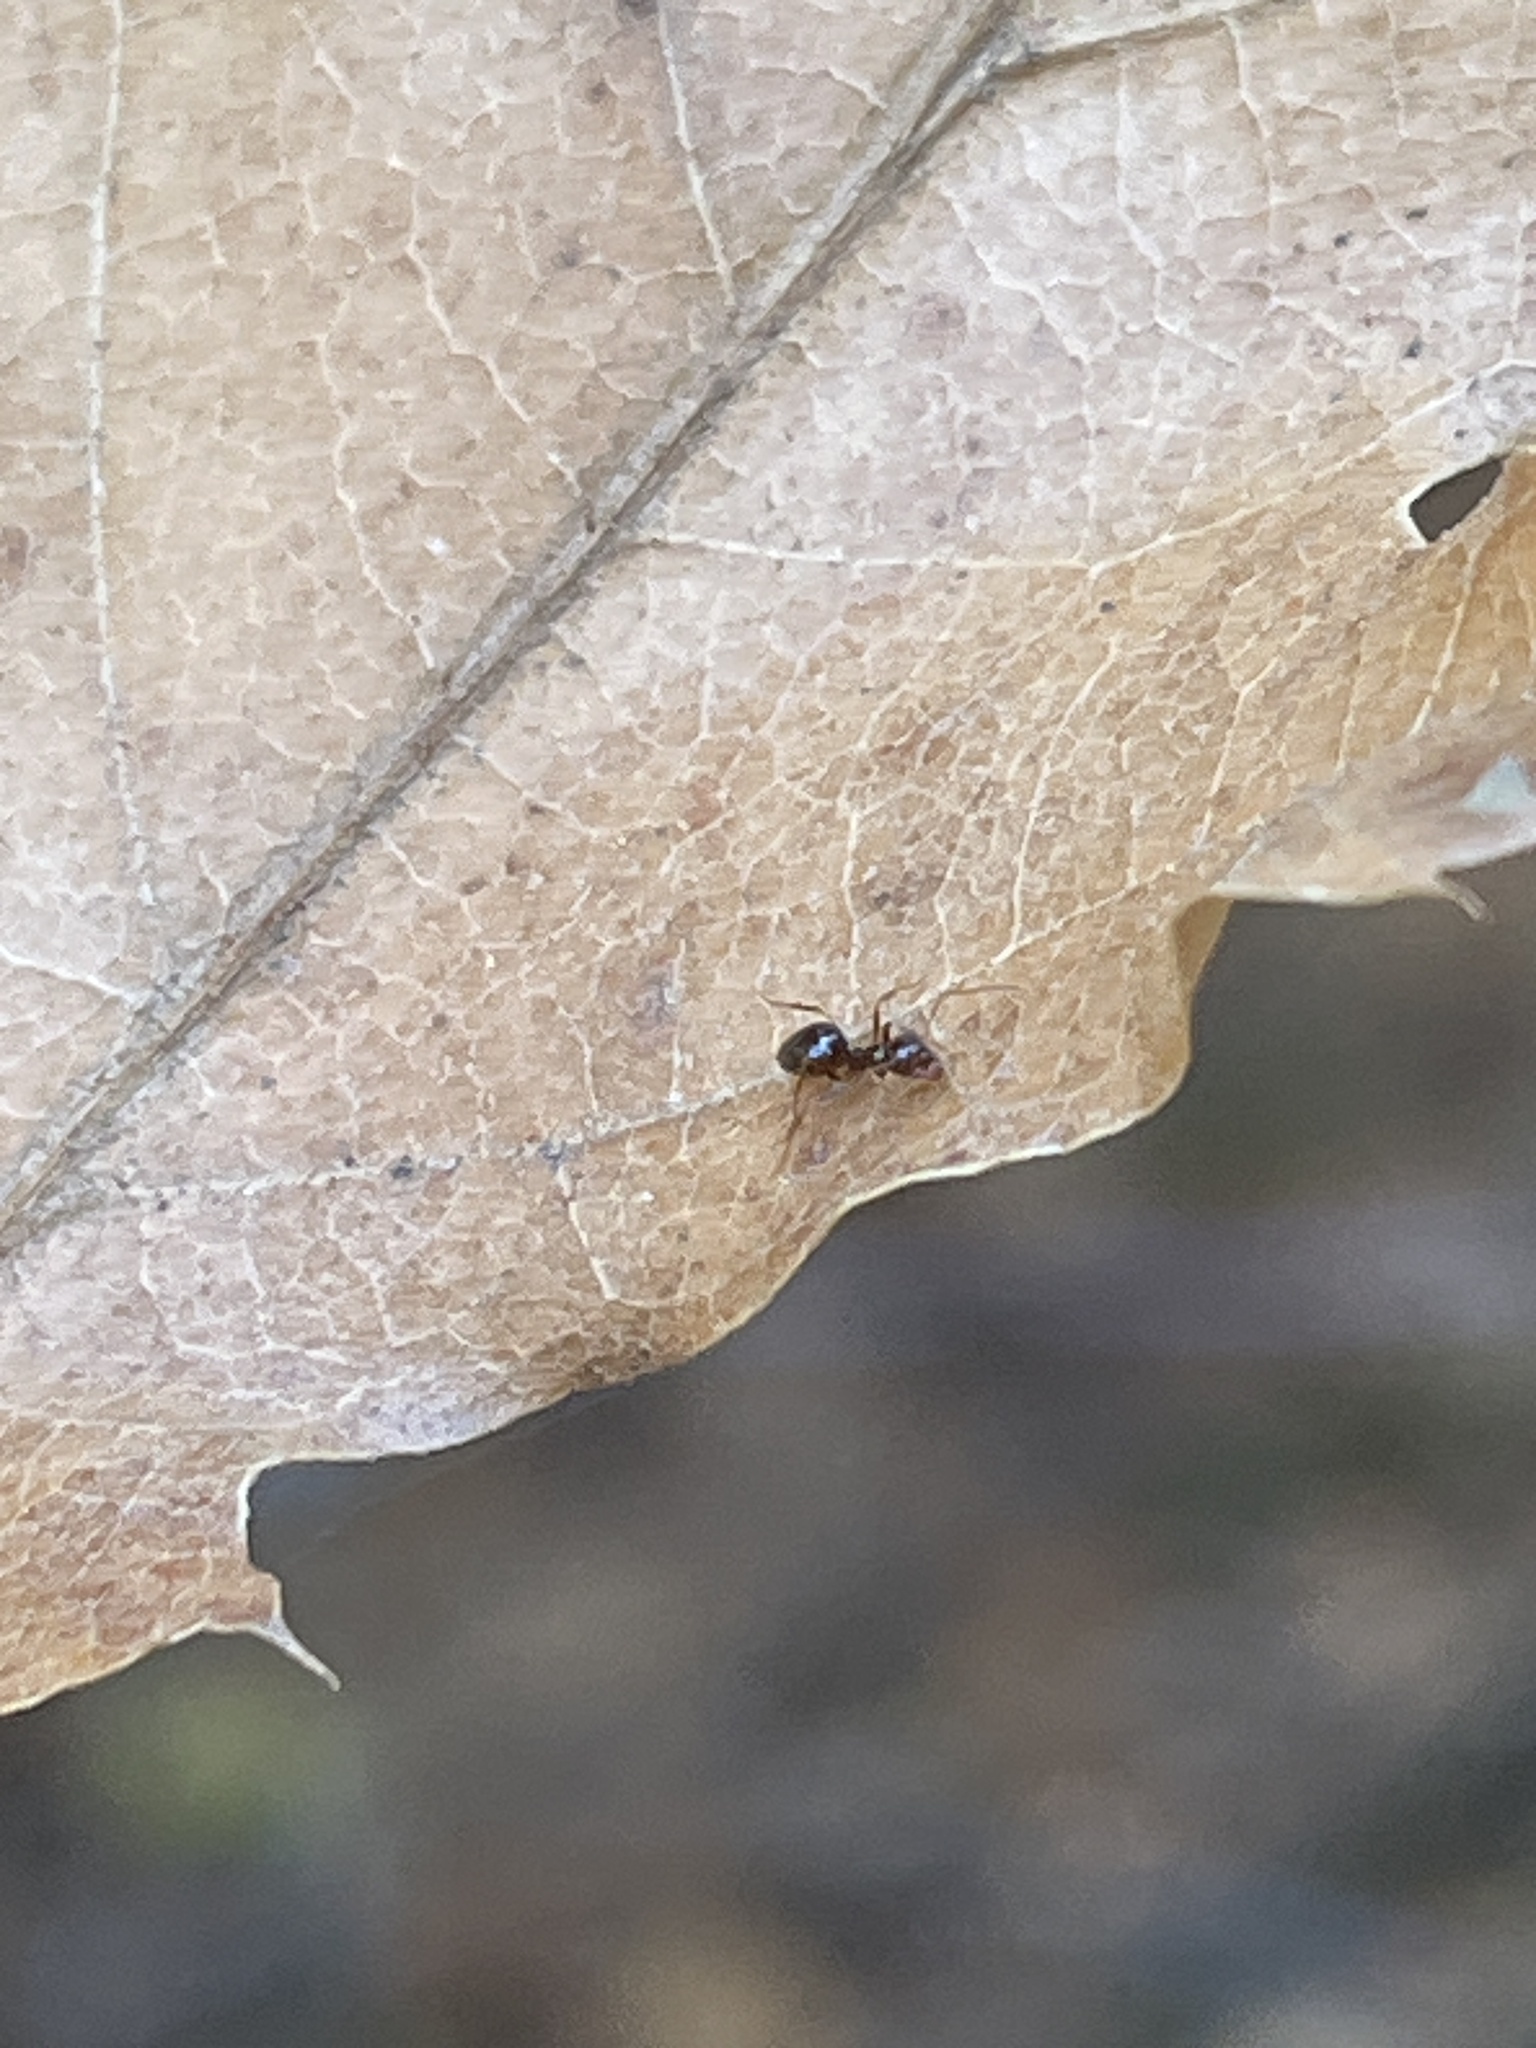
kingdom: Animalia
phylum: Arthropoda
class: Insecta
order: Hymenoptera
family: Formicidae
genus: Prenolepis
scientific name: Prenolepis imparis
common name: Small honey ant
